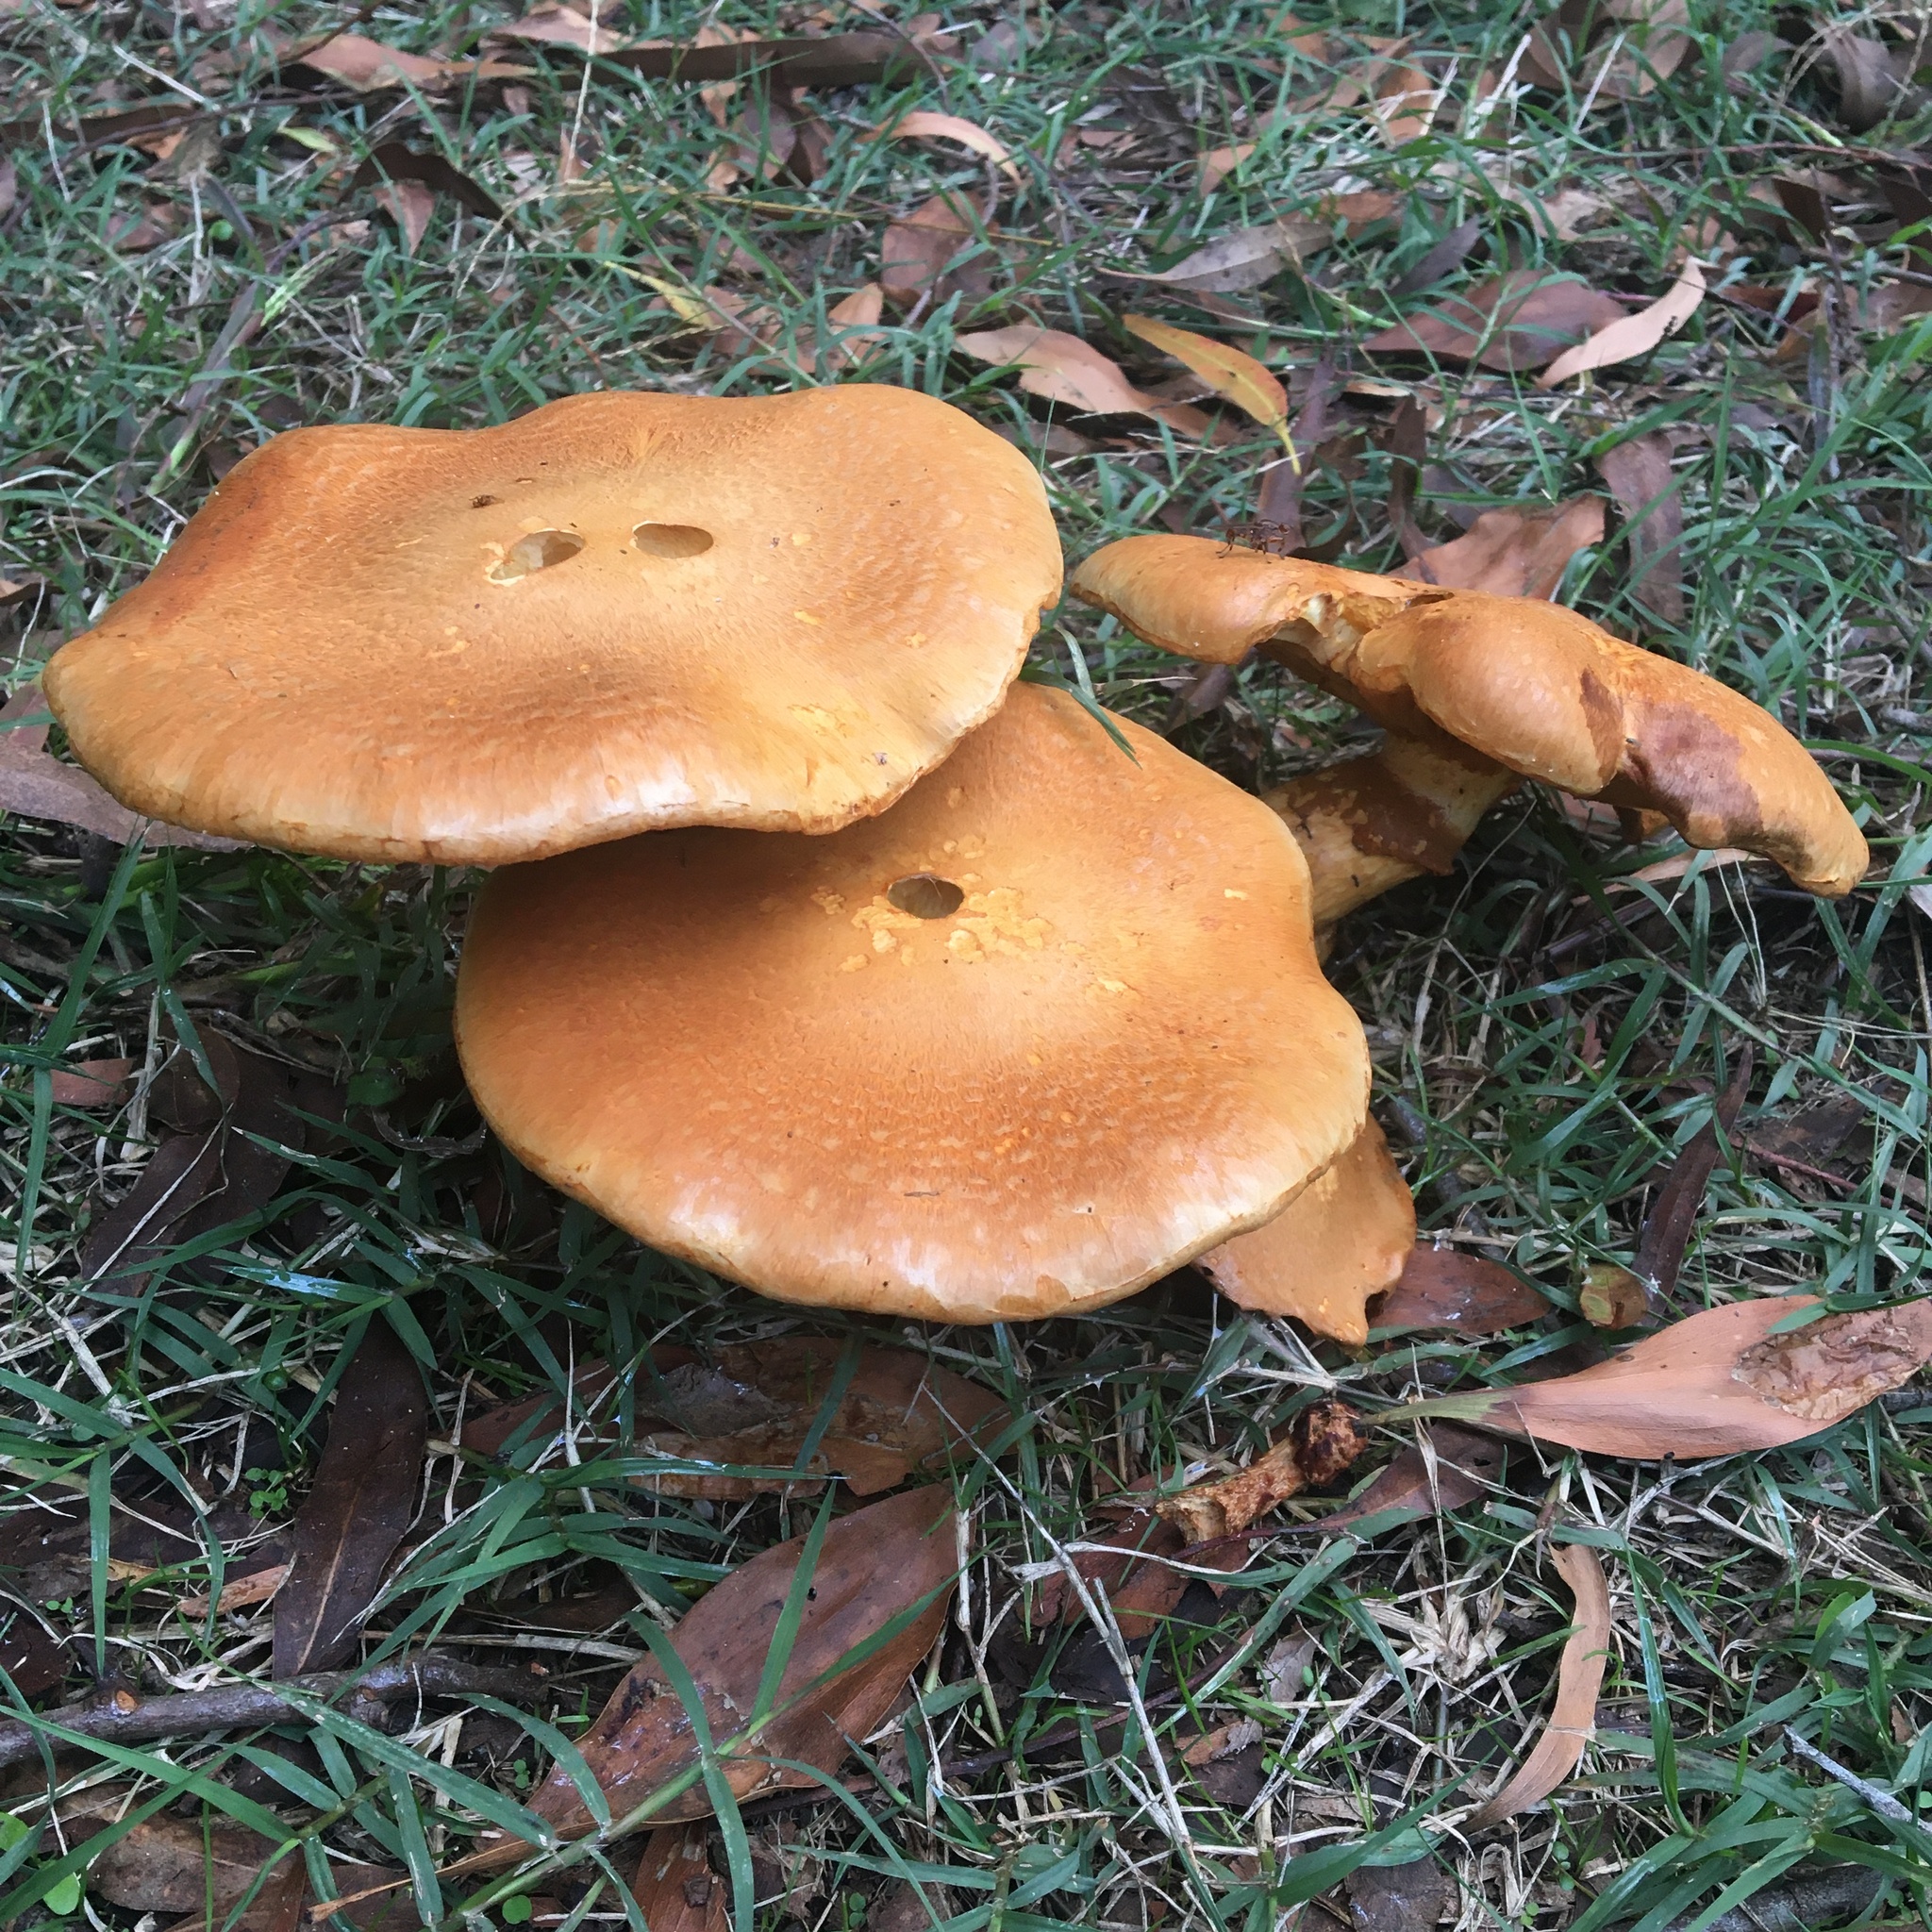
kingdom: Fungi
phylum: Basidiomycota
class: Agaricomycetes
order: Agaricales
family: Hymenogastraceae
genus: Gymnopilus
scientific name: Gymnopilus junonius
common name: Spectacular rustgill
